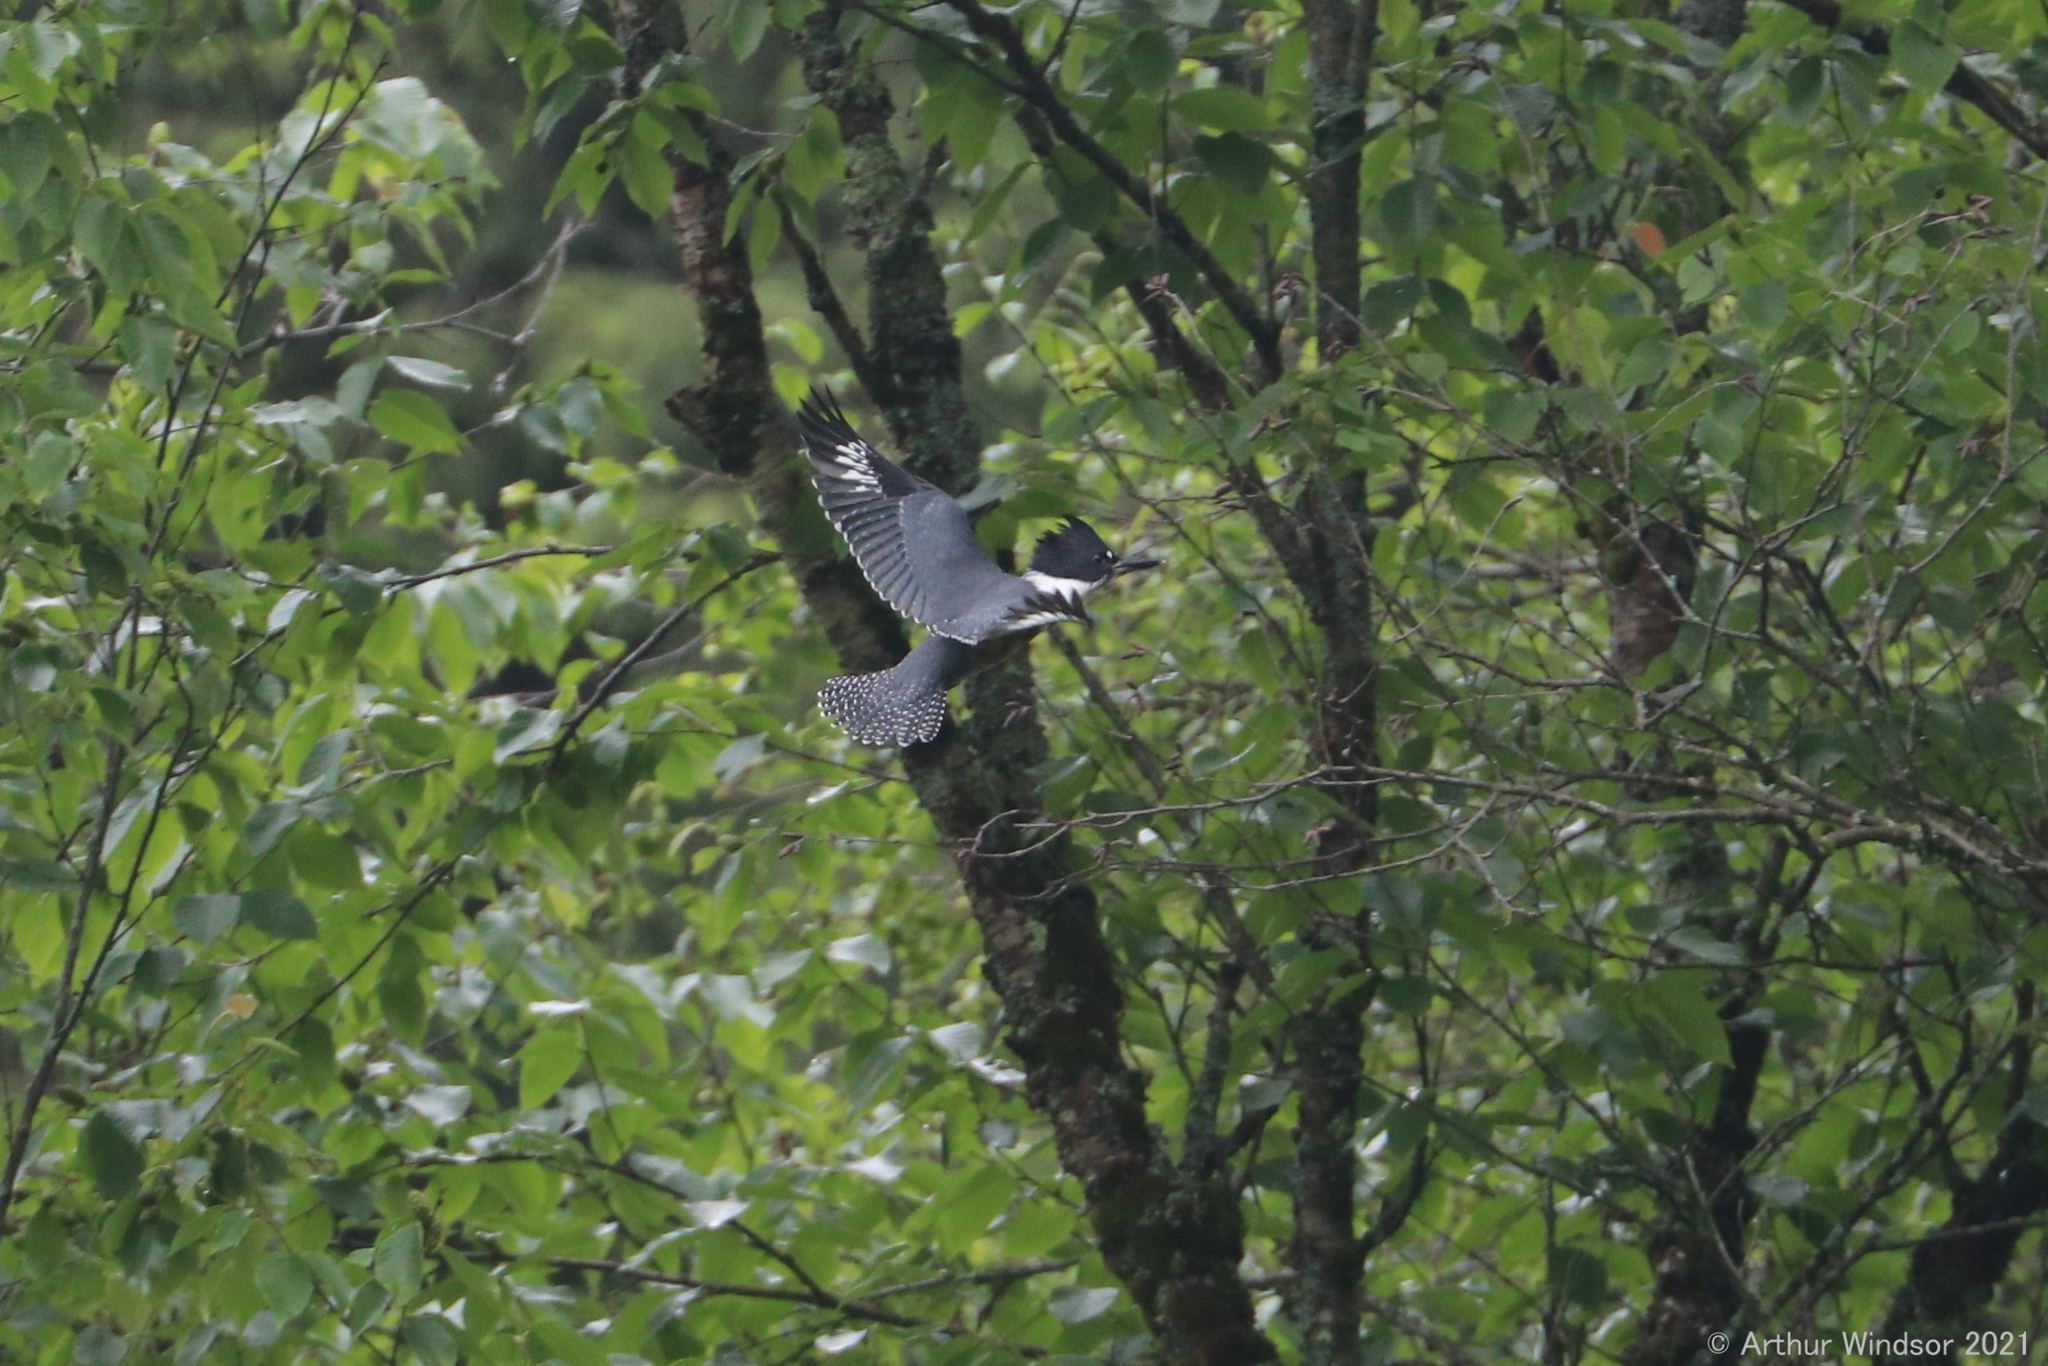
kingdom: Animalia
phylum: Chordata
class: Aves
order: Coraciiformes
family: Alcedinidae
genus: Megaceryle
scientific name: Megaceryle alcyon
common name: Belted kingfisher
